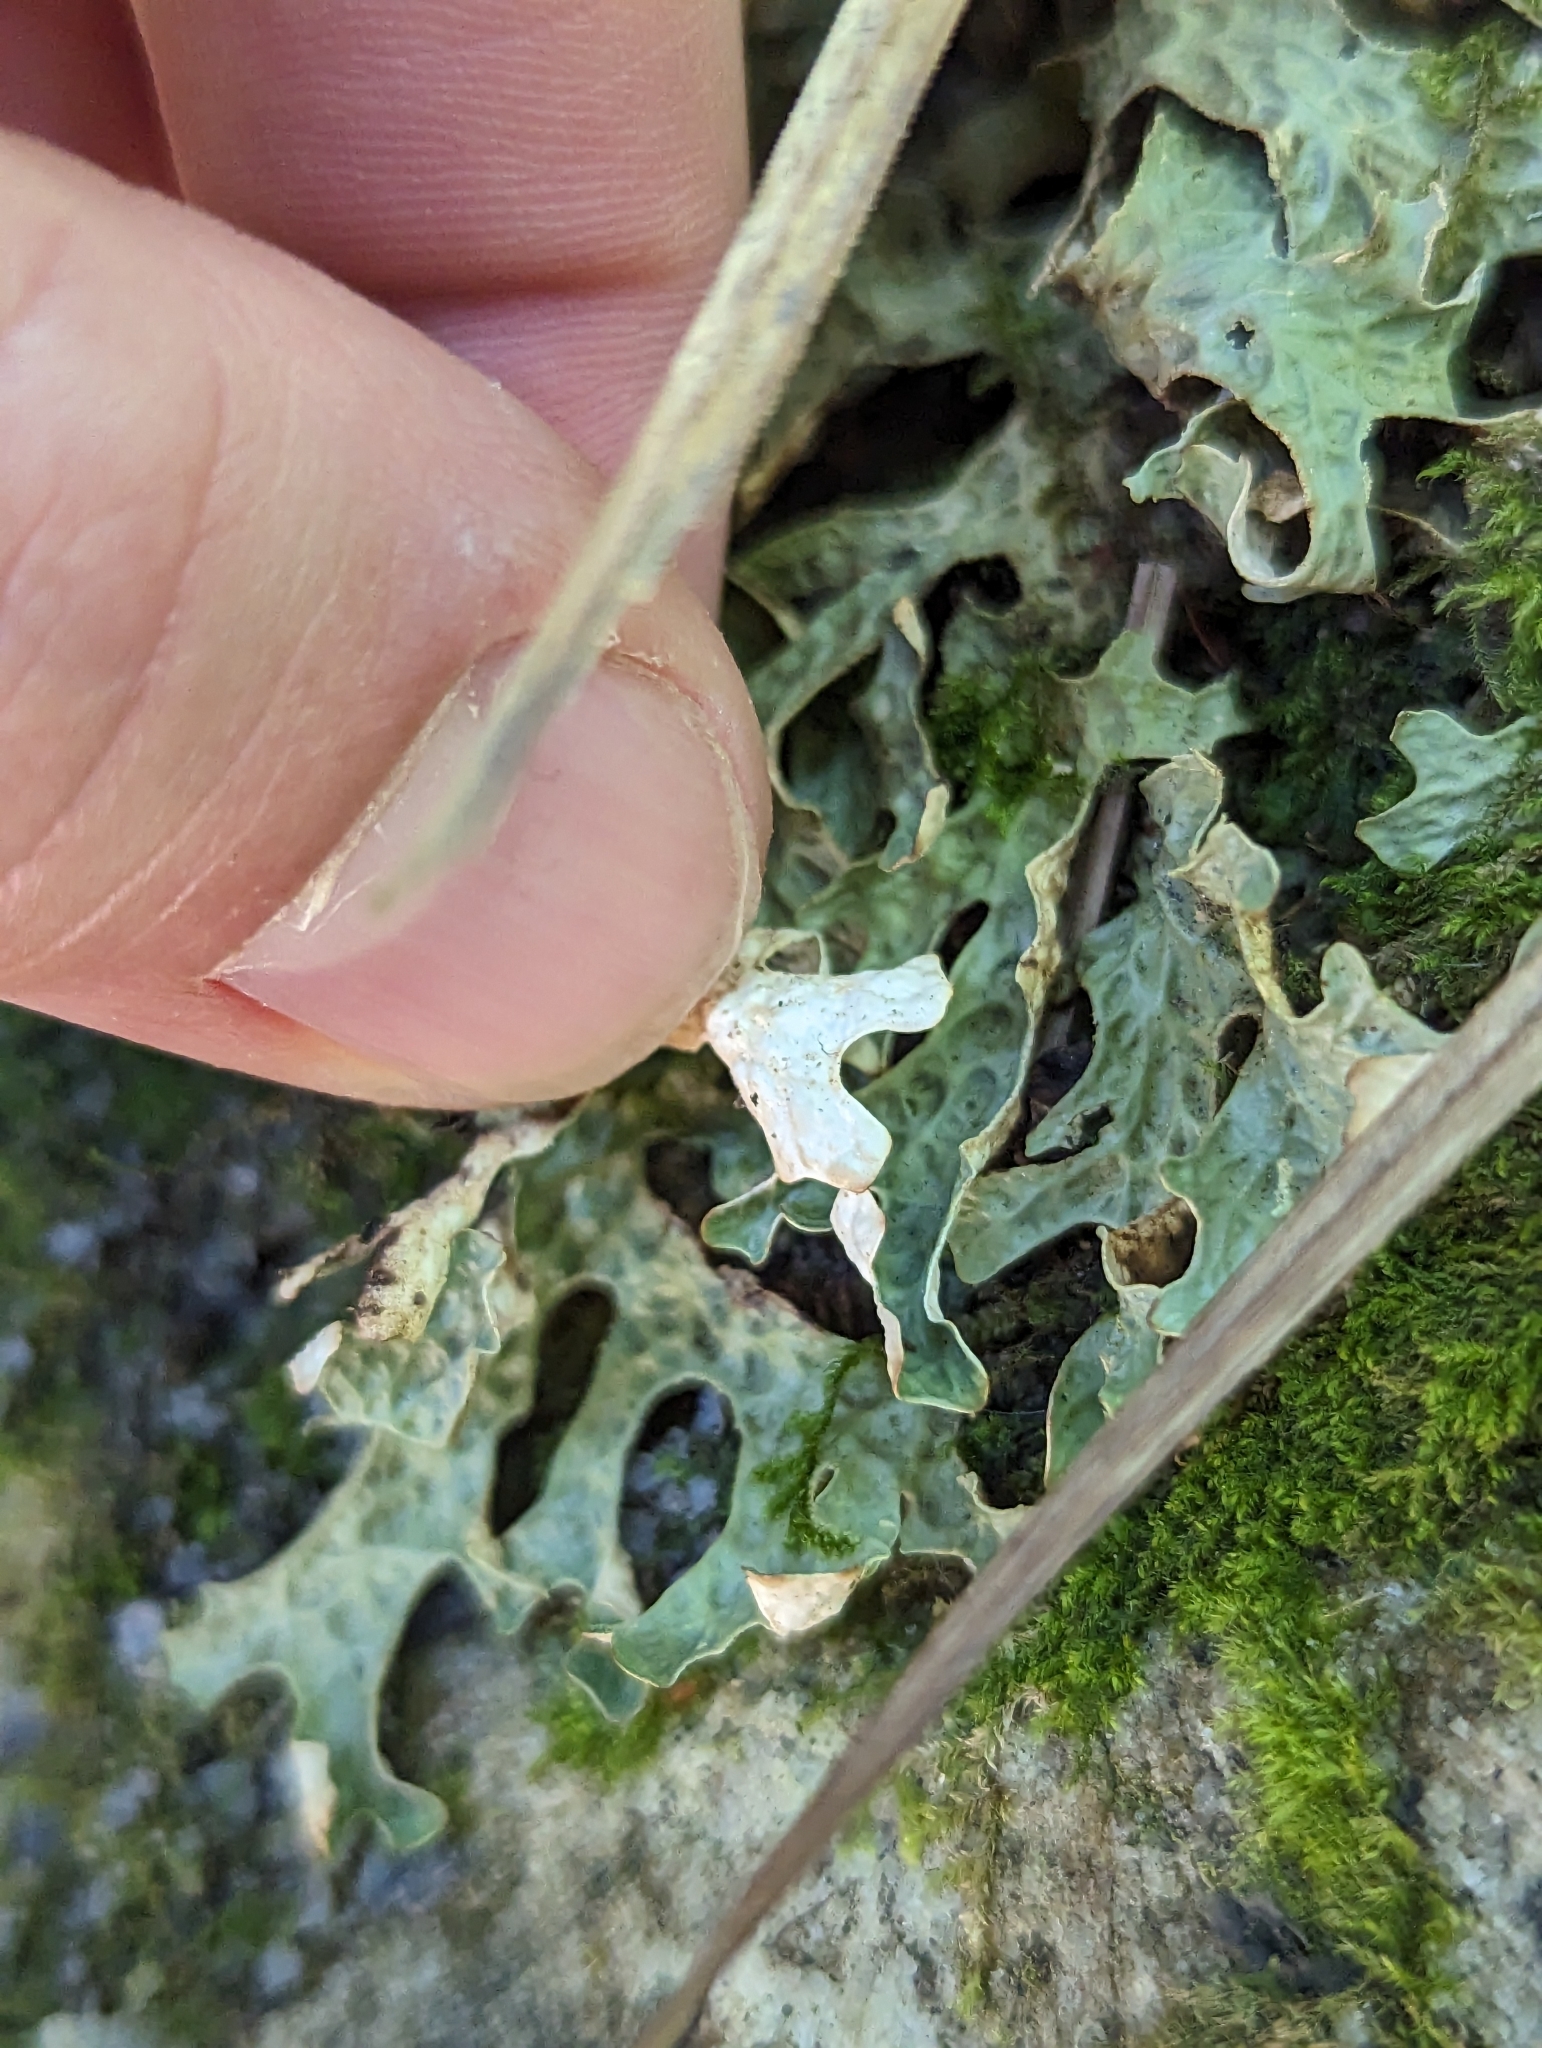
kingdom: Fungi
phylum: Ascomycota
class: Lecanoromycetes
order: Peltigerales
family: Lobariaceae
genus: Lobaria
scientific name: Lobaria pulmonaria
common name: Lungwort
